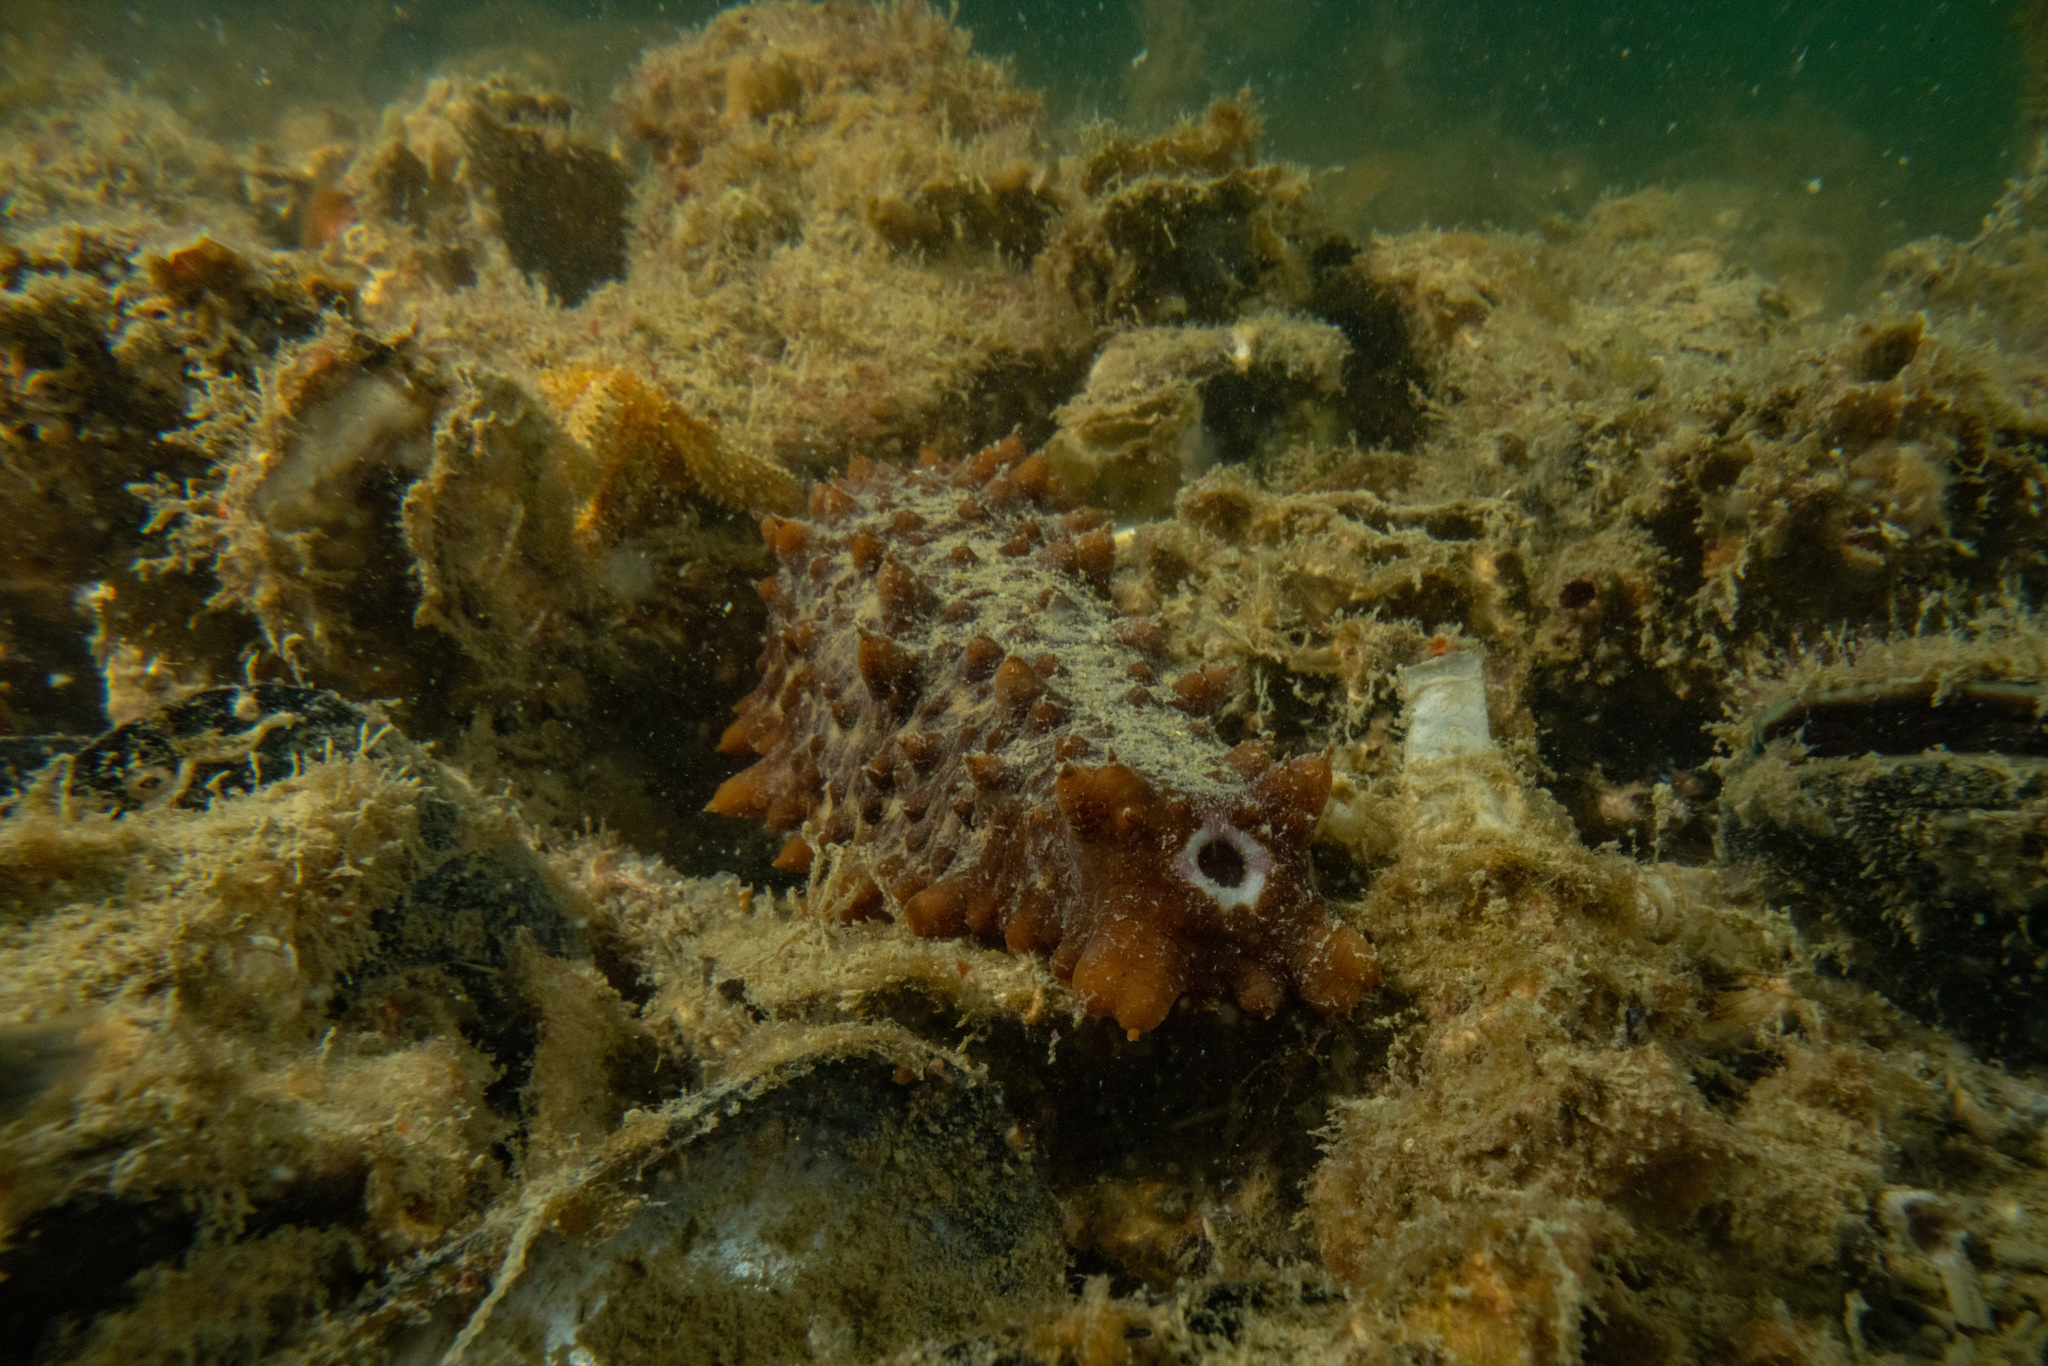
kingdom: Animalia
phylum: Echinodermata
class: Holothuroidea
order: Synallactida
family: Stichopodidae
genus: Australostichopus
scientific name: Australostichopus mollis
